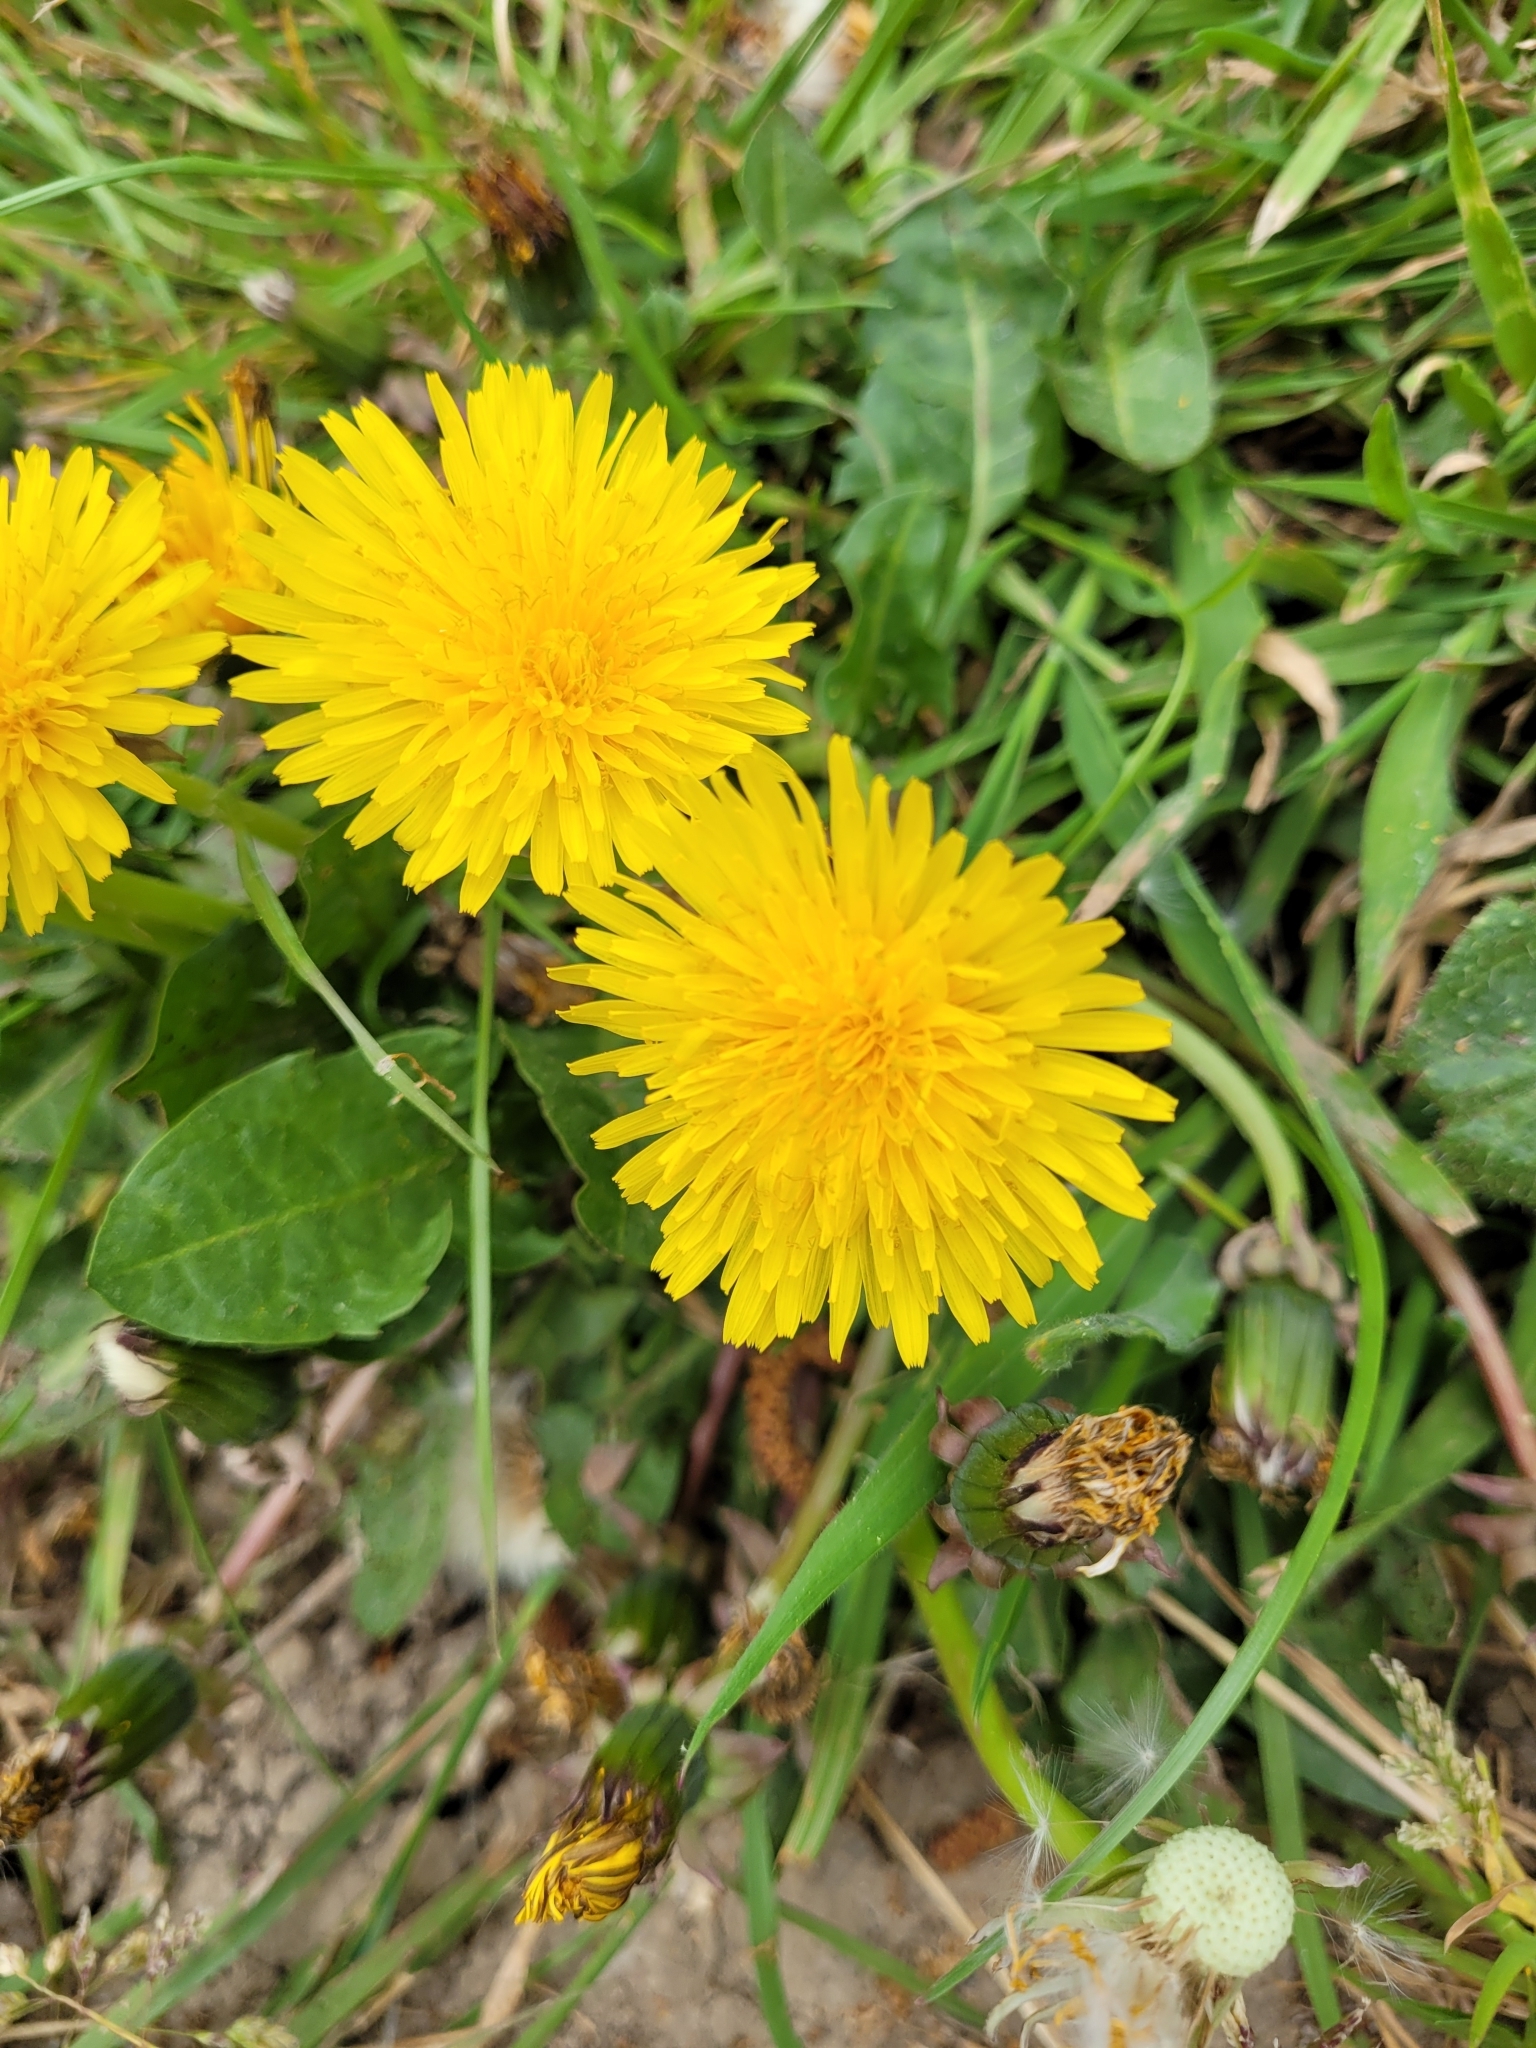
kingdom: Plantae
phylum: Tracheophyta
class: Magnoliopsida
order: Asterales
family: Asteraceae
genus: Taraxacum
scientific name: Taraxacum officinale
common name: Common dandelion
